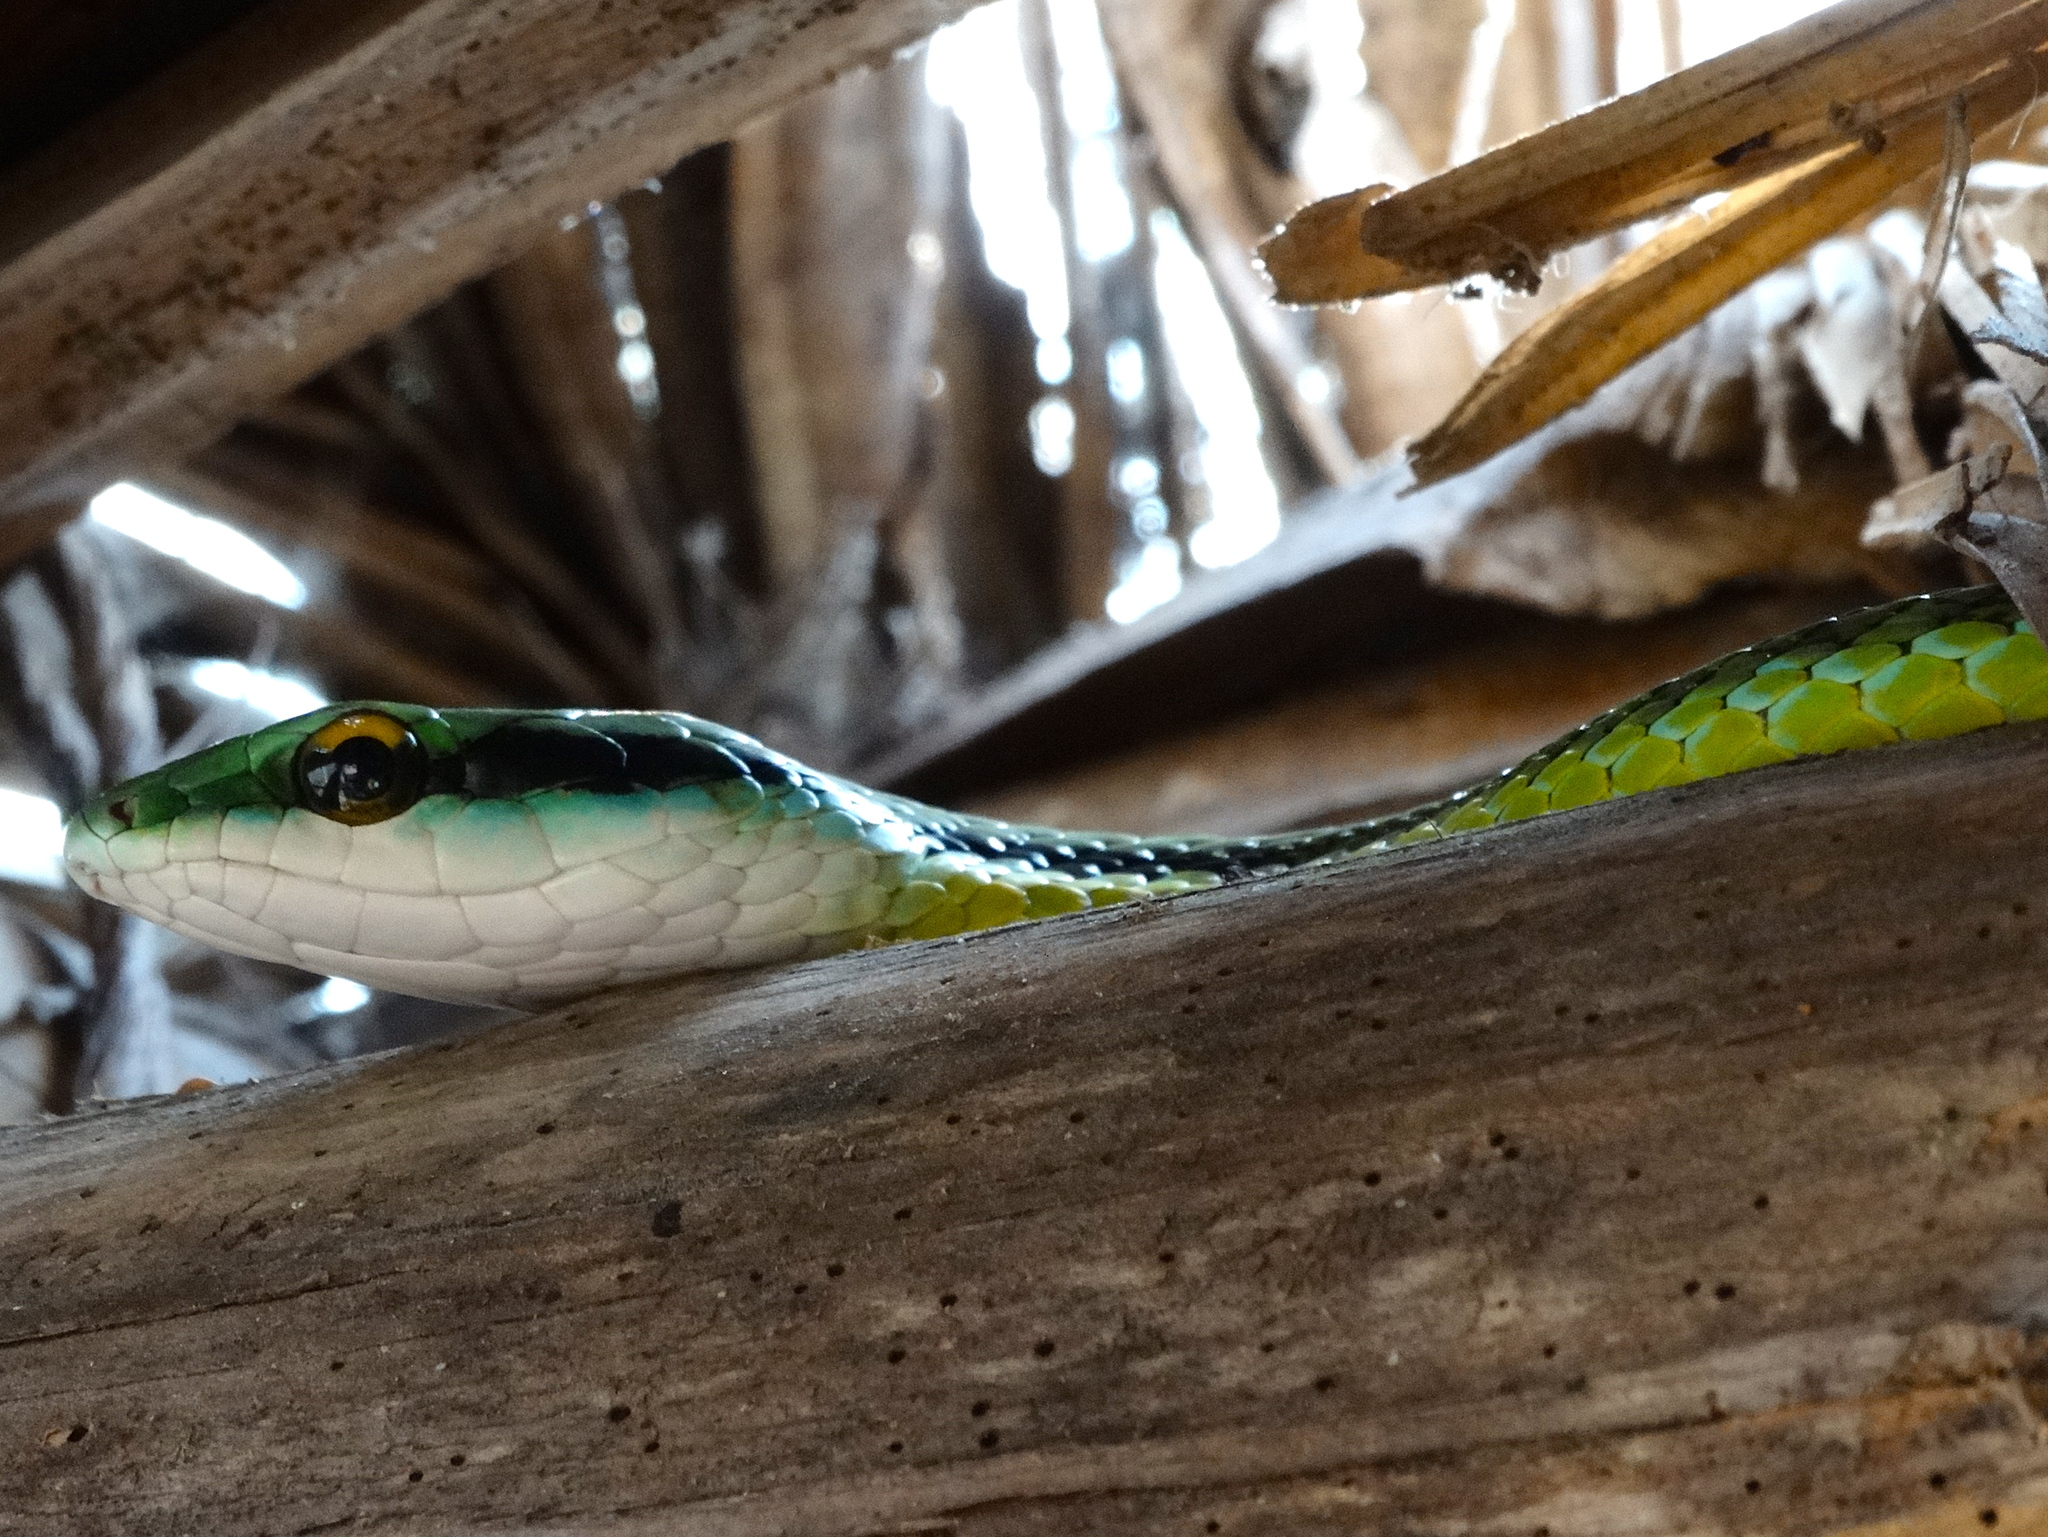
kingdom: Animalia
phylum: Chordata
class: Squamata
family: Colubridae
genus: Leptophis
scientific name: Leptophis diplotropis
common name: Pacific coast parrot snake
